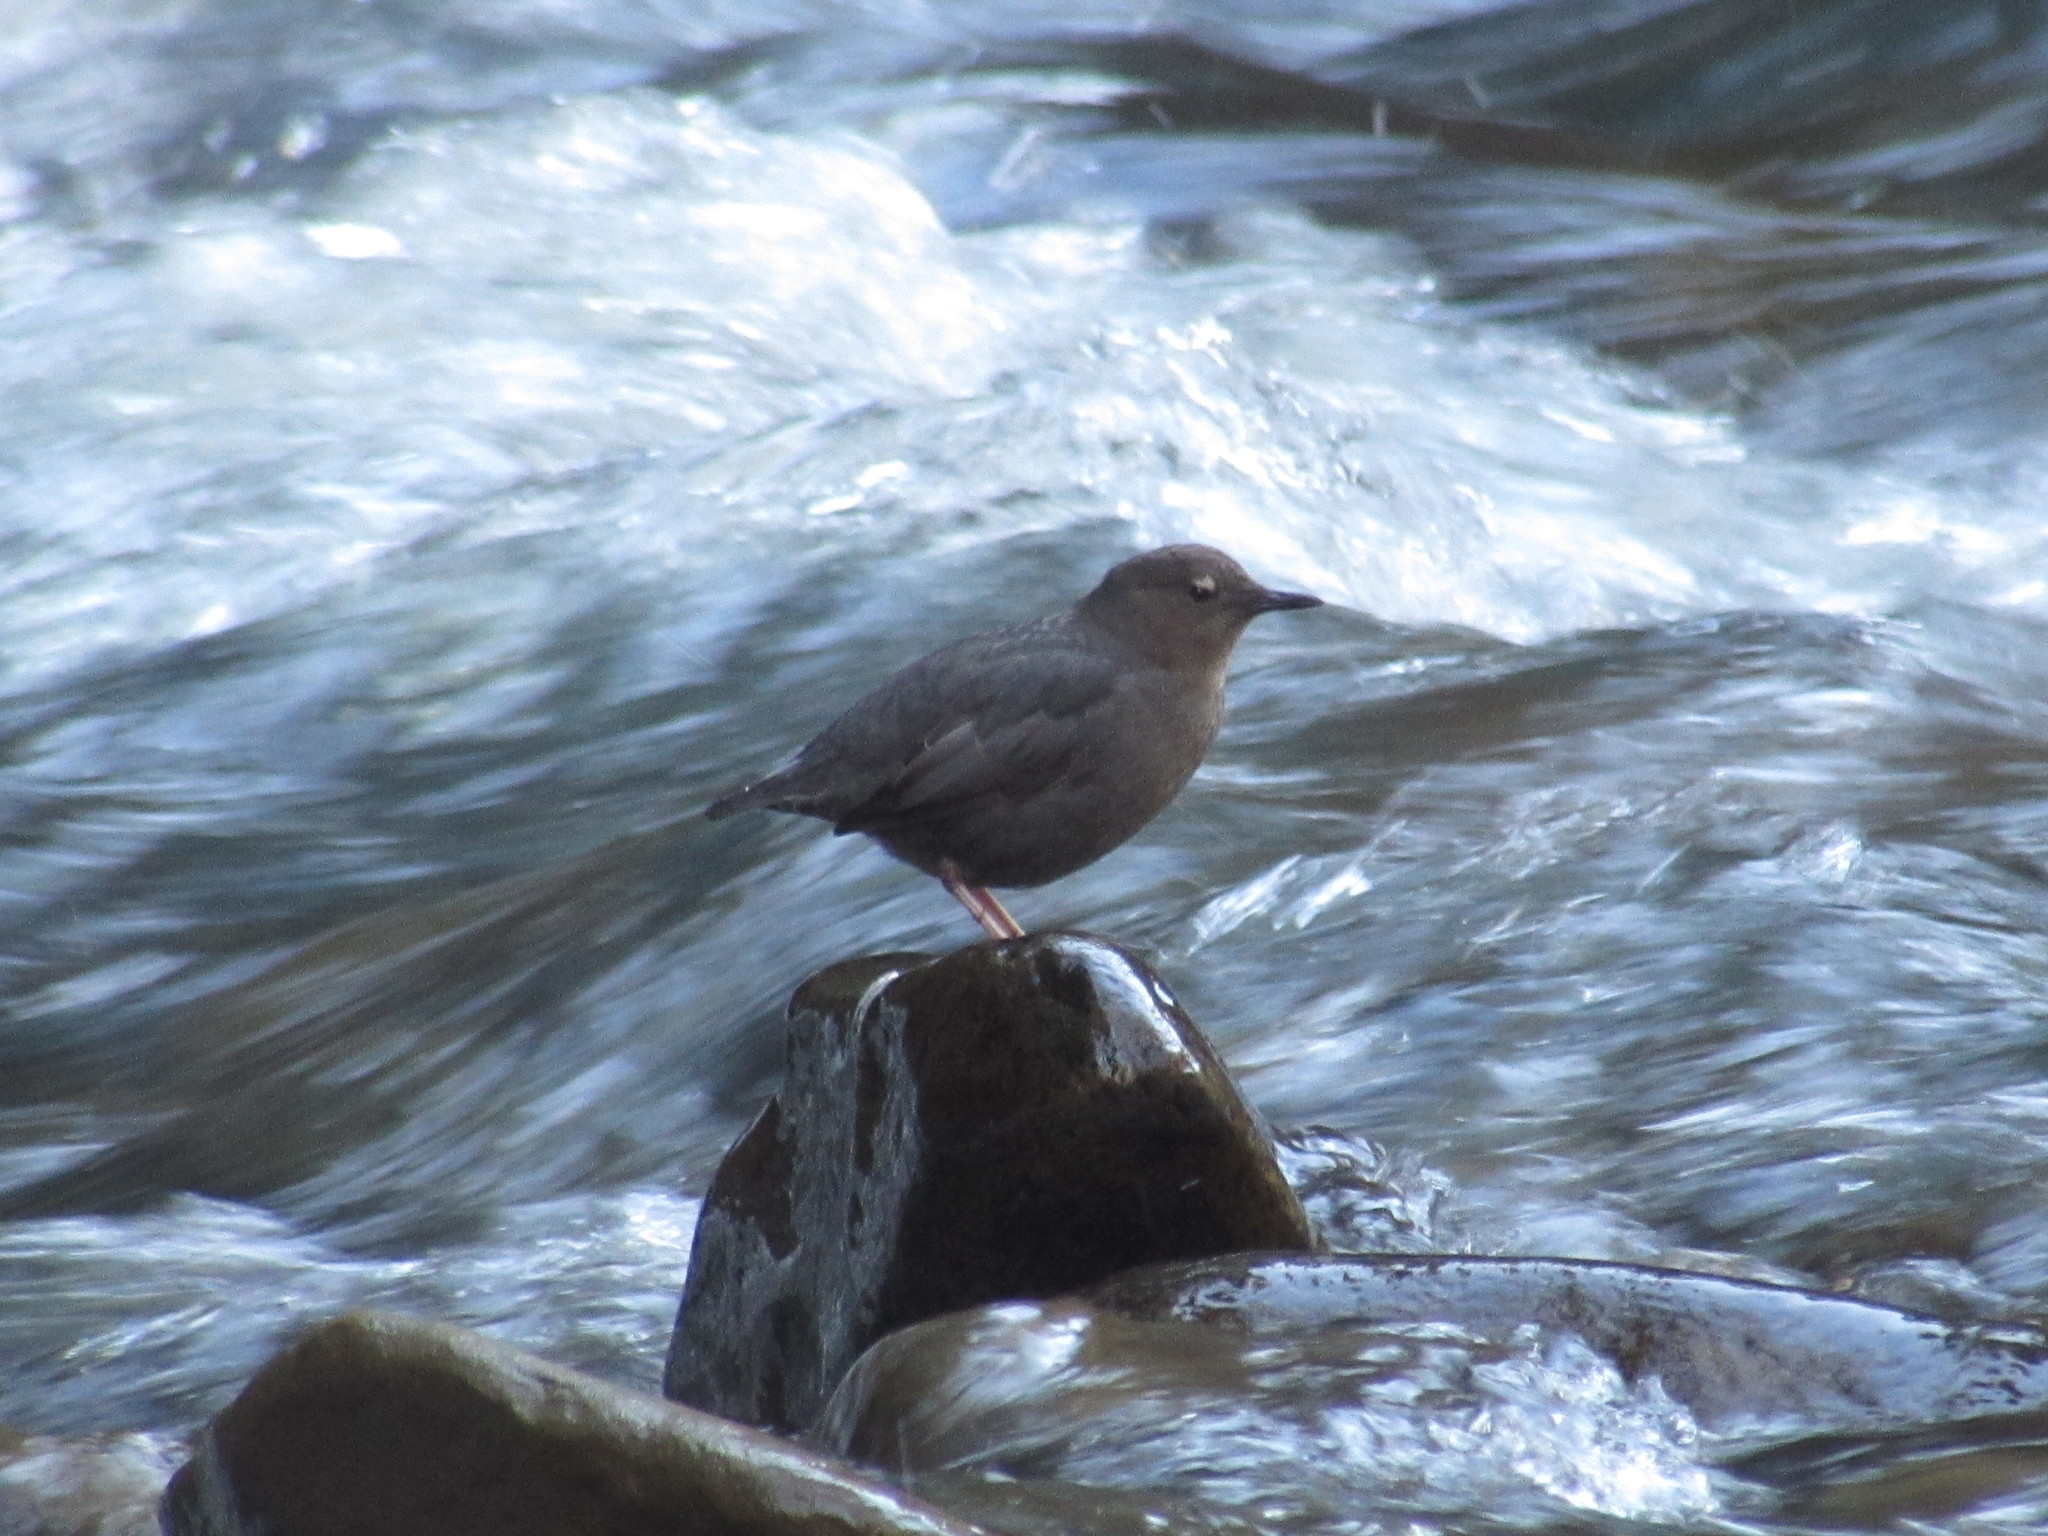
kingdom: Animalia
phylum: Chordata
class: Aves
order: Passeriformes
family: Cinclidae
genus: Cinclus
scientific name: Cinclus mexicanus
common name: American dipper
